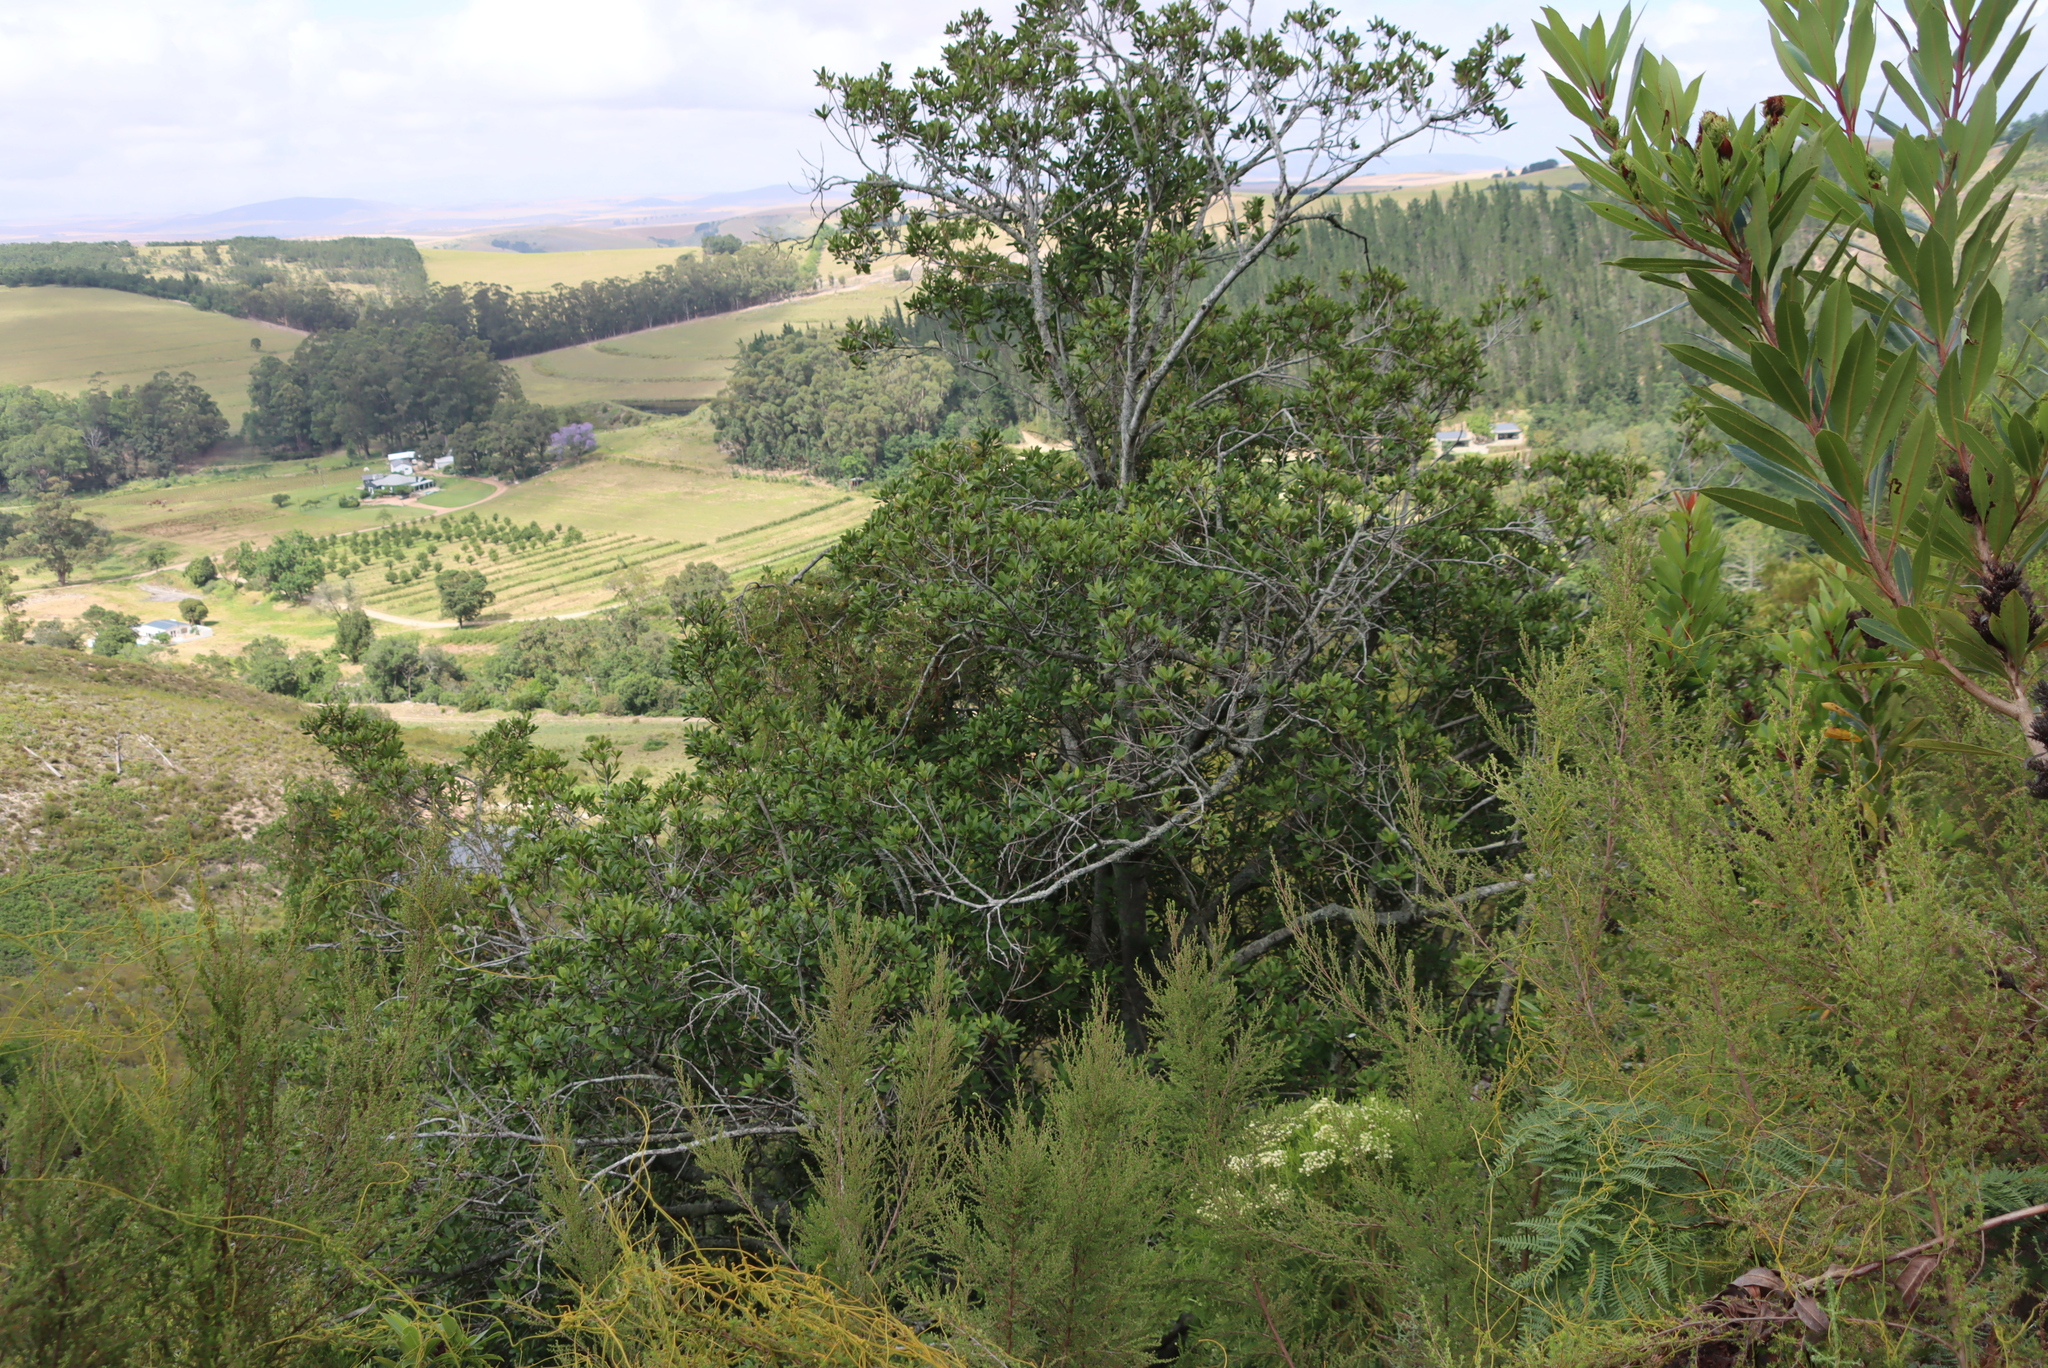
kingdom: Plantae
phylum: Tracheophyta
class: Magnoliopsida
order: Ericales
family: Primulaceae
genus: Myrsine
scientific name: Myrsine melanophloeos
